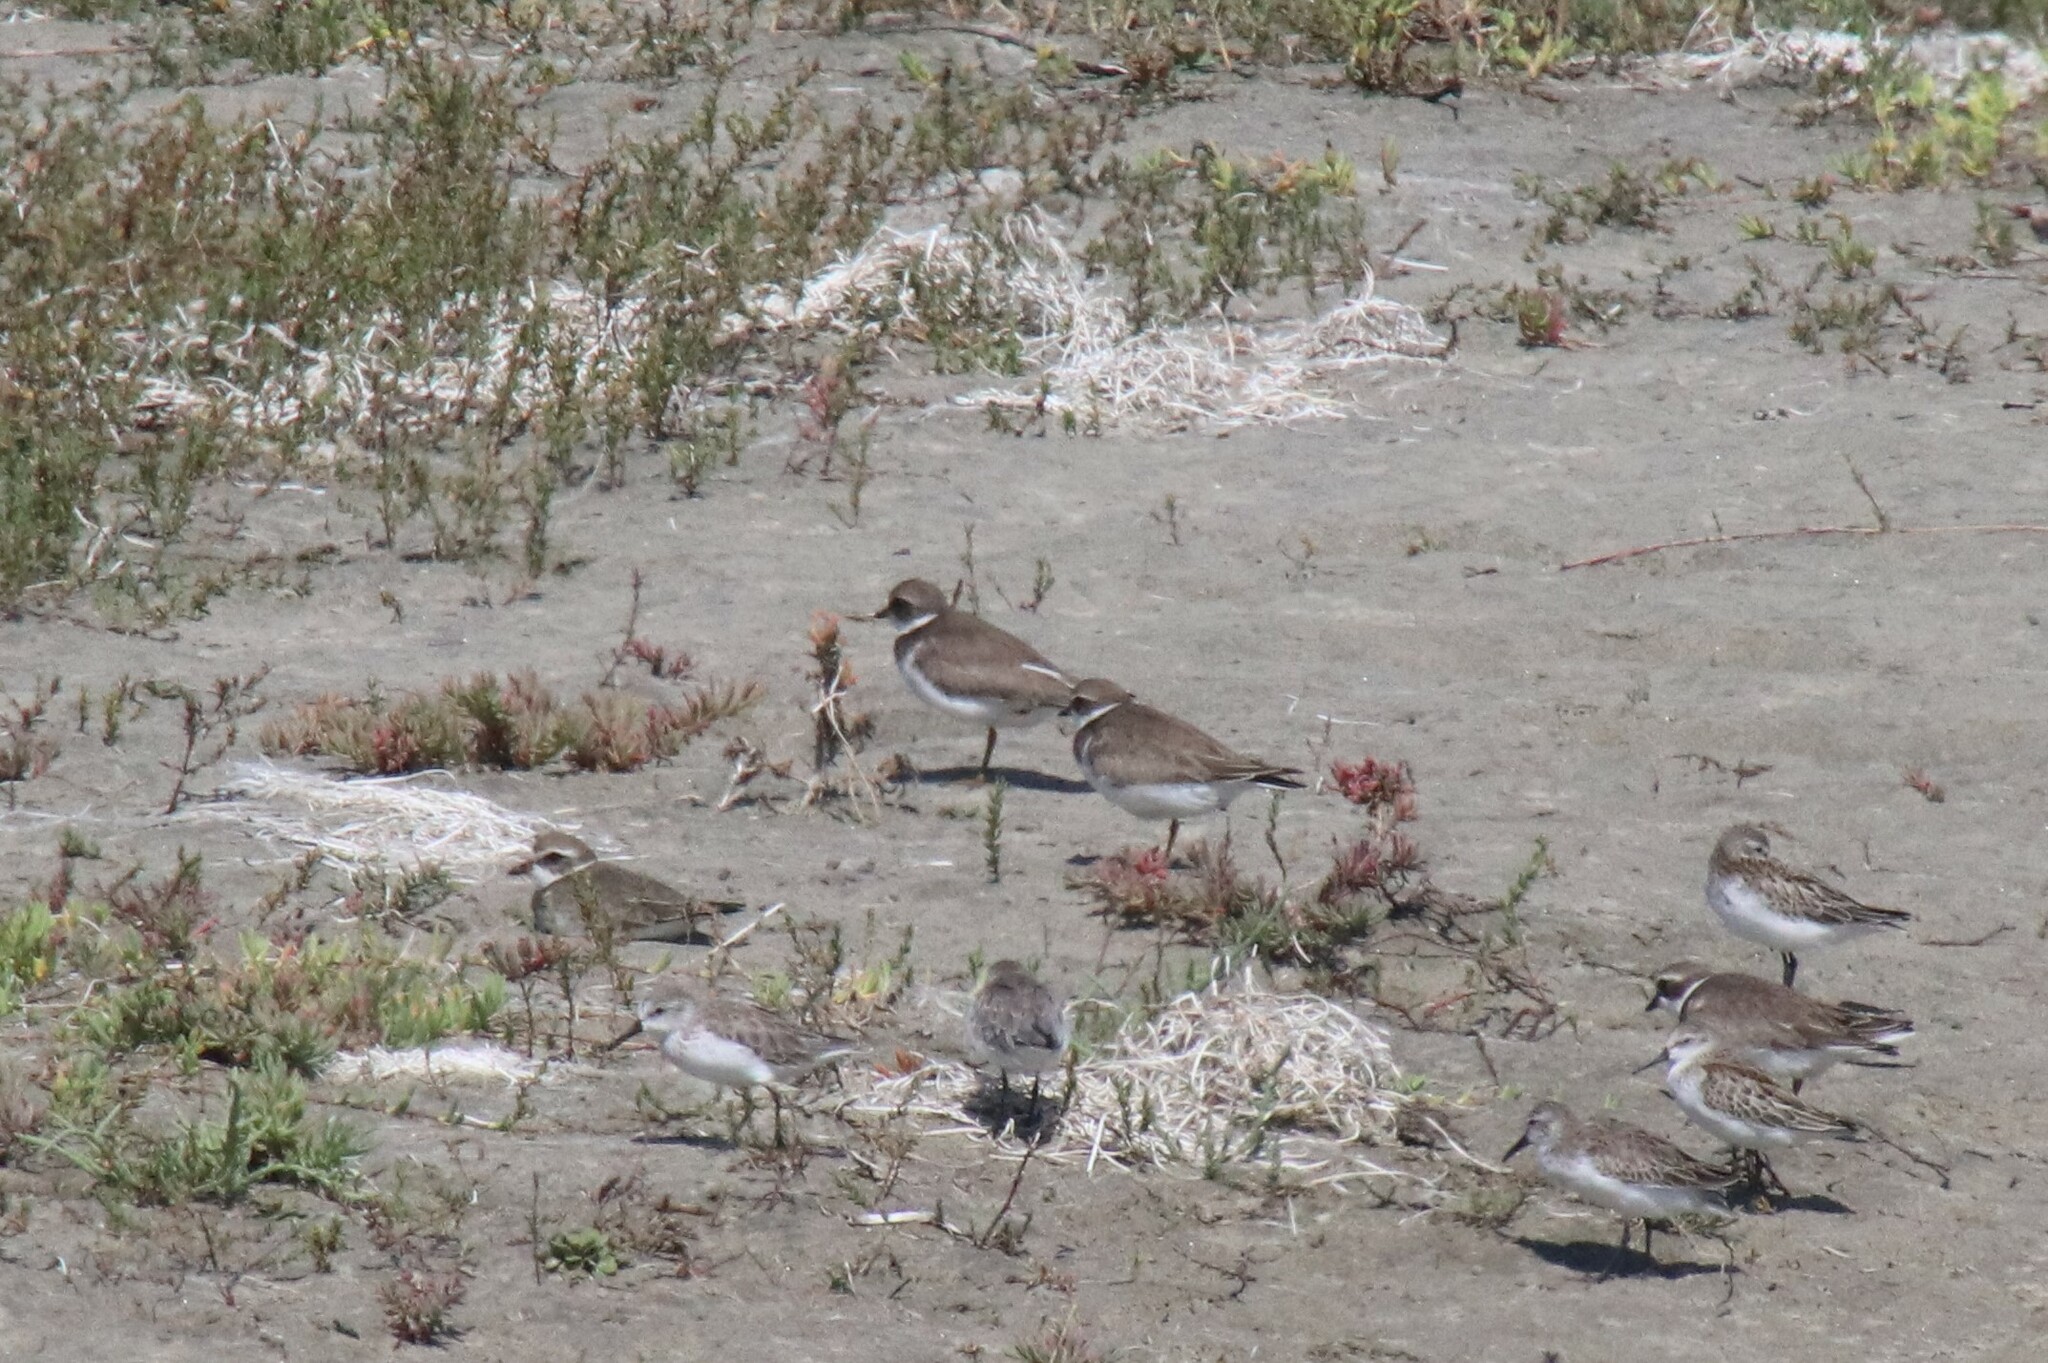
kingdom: Animalia
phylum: Chordata
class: Aves
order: Charadriiformes
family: Charadriidae
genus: Charadrius
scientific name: Charadrius semipalmatus
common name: Semipalmated plover
